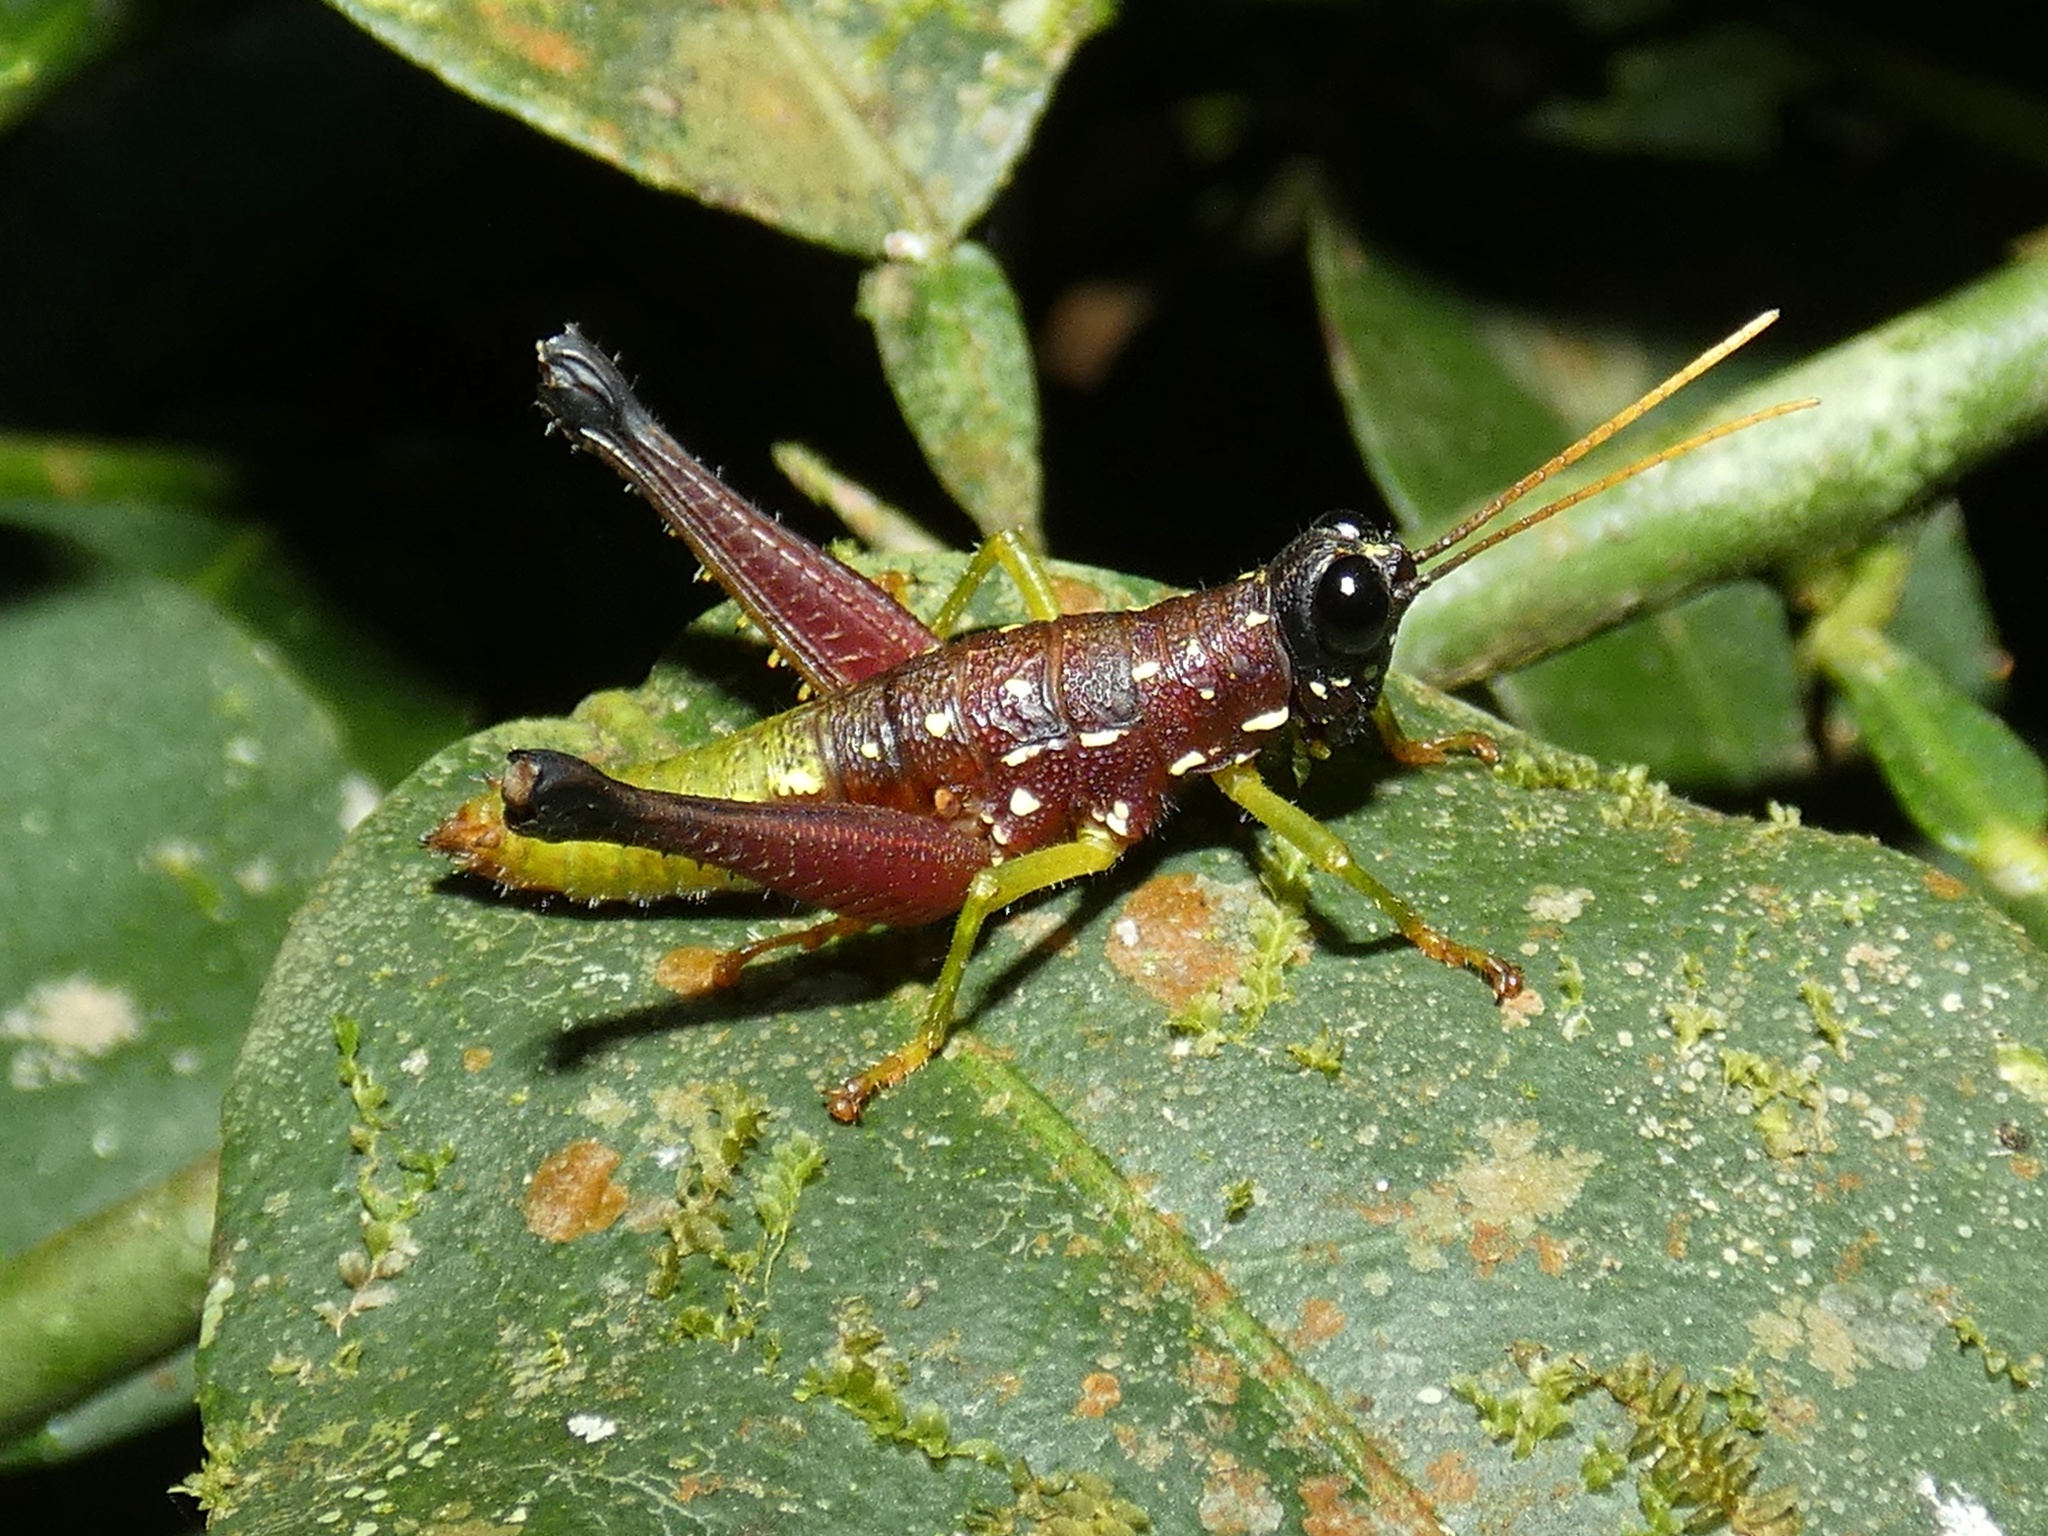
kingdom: Animalia
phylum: Arthropoda
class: Insecta
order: Orthoptera
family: Acrididae
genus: Oedalacris
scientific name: Oedalacris cambrai
